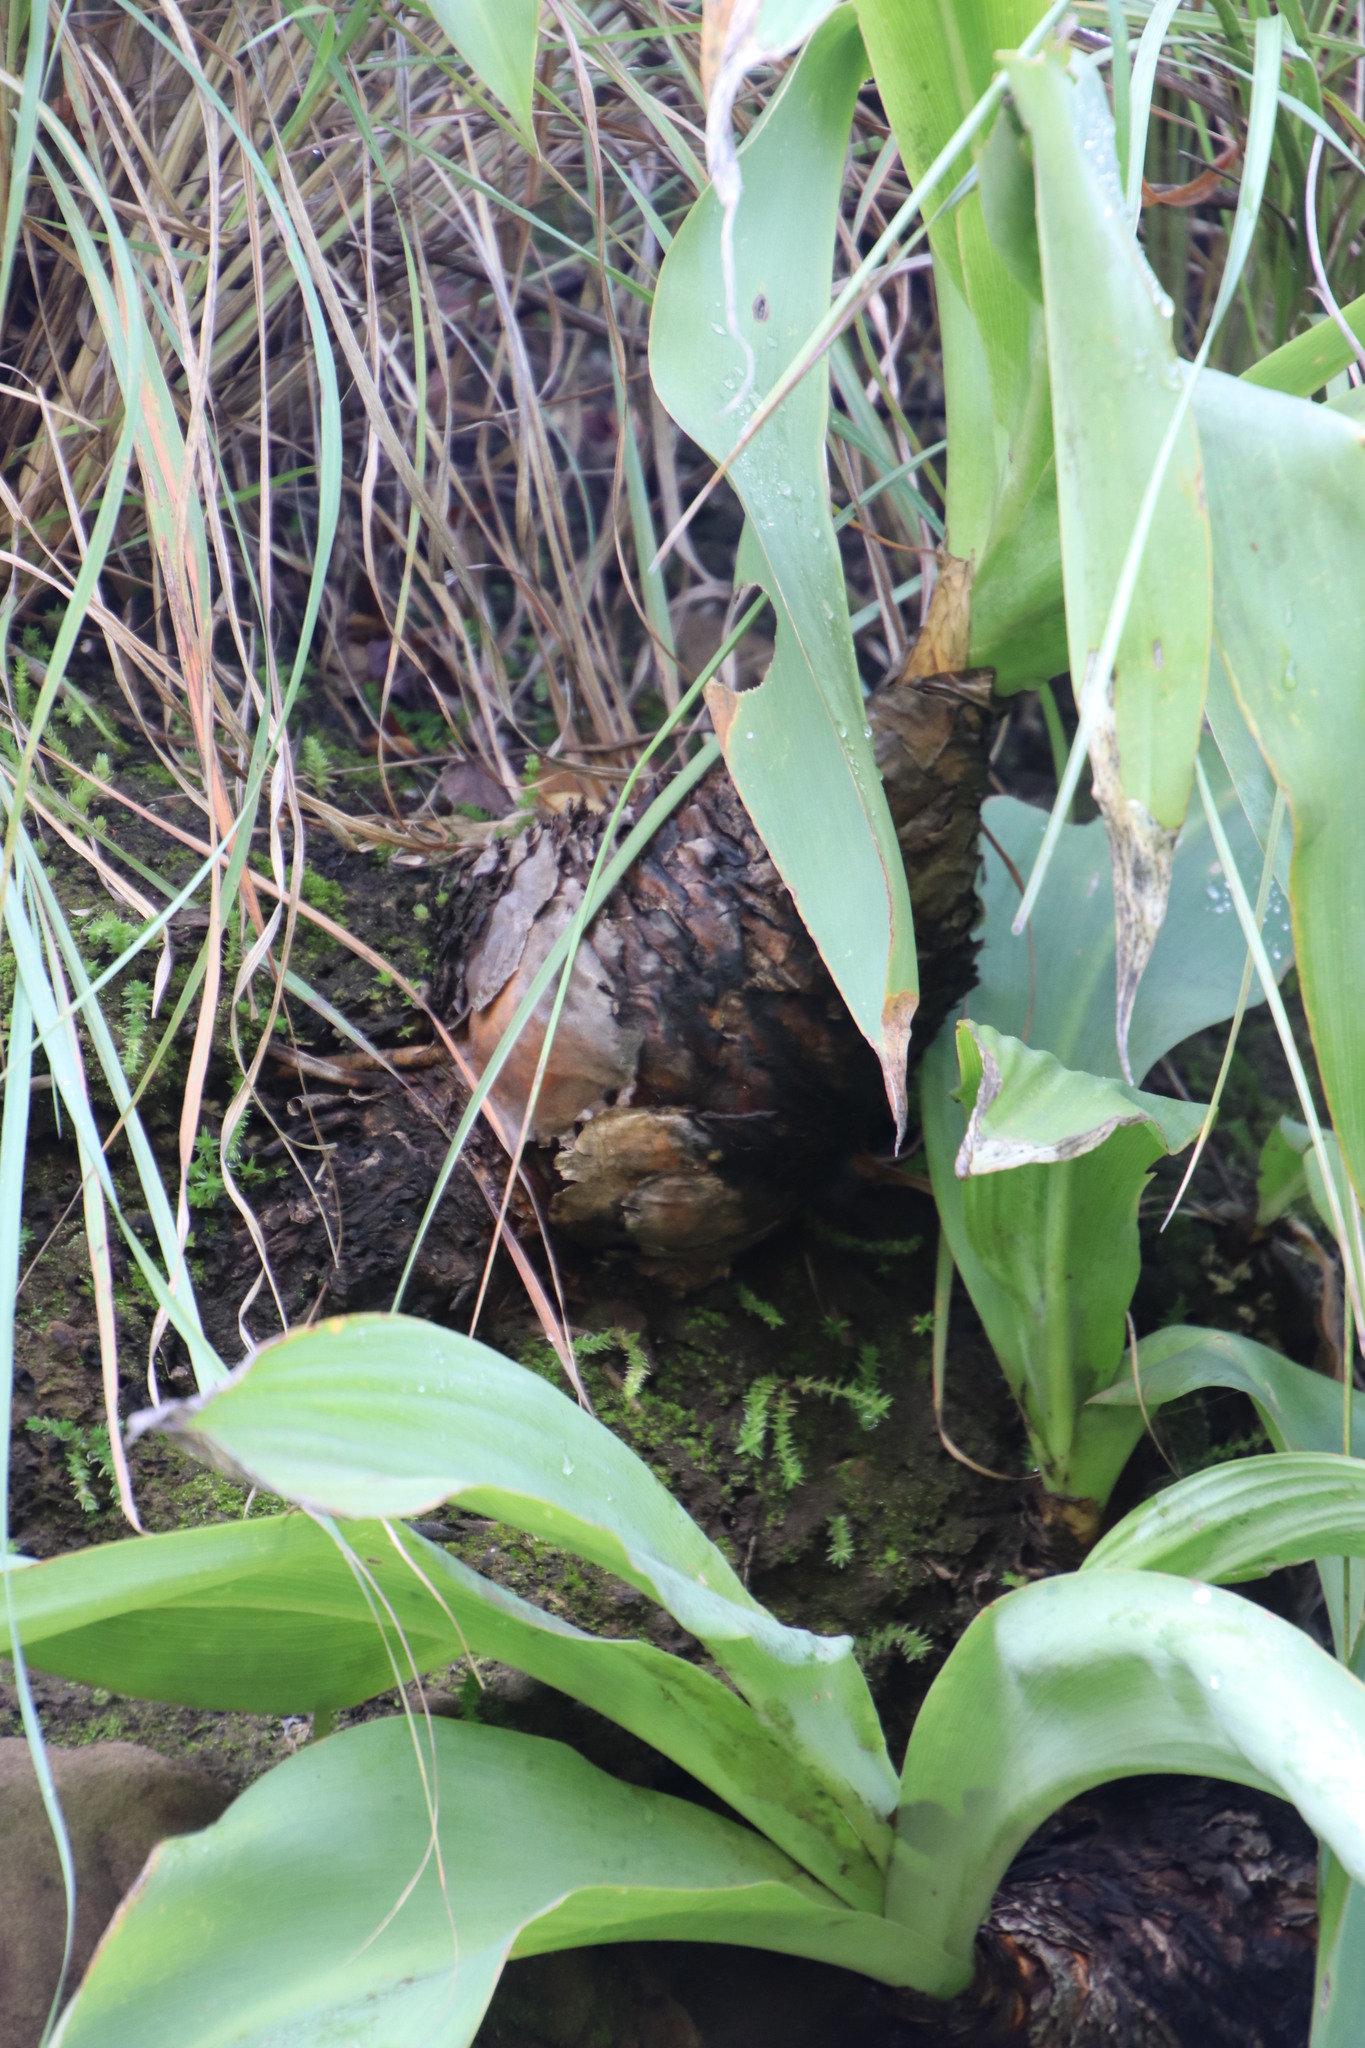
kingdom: Plantae
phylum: Tracheophyta
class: Liliopsida
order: Asparagales
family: Asparagaceae
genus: Merwilla
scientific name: Merwilla plumbea
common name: Blue-squill
